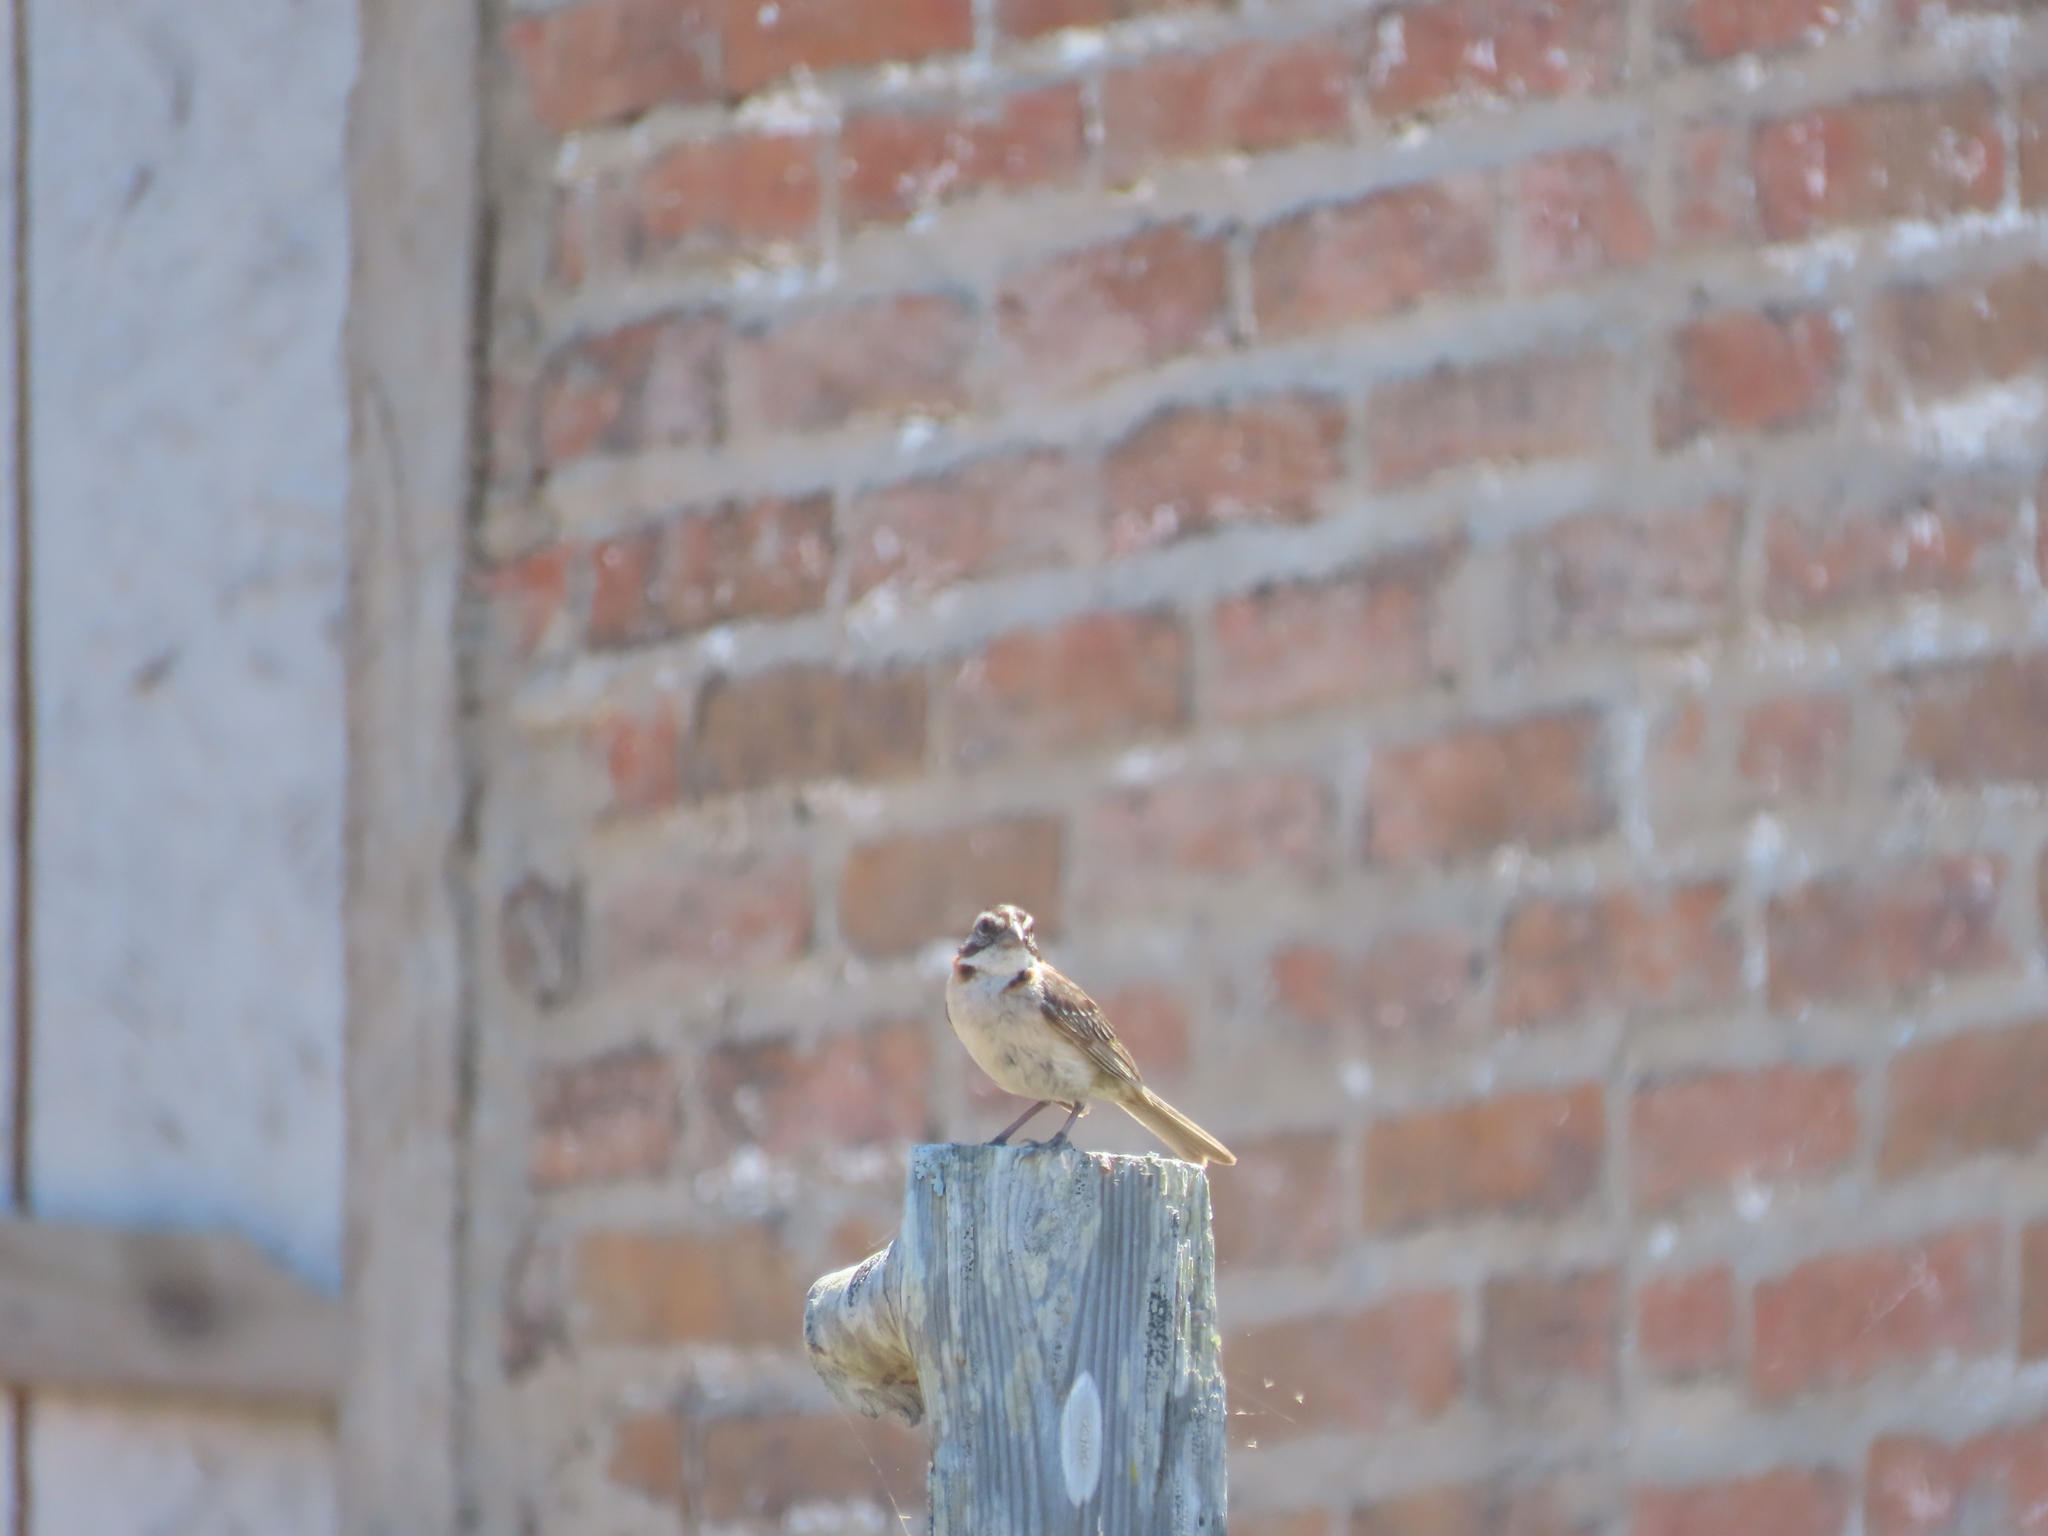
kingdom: Animalia
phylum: Chordata
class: Aves
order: Passeriformes
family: Passerellidae
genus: Zonotrichia
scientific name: Zonotrichia capensis
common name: Rufous-collared sparrow
